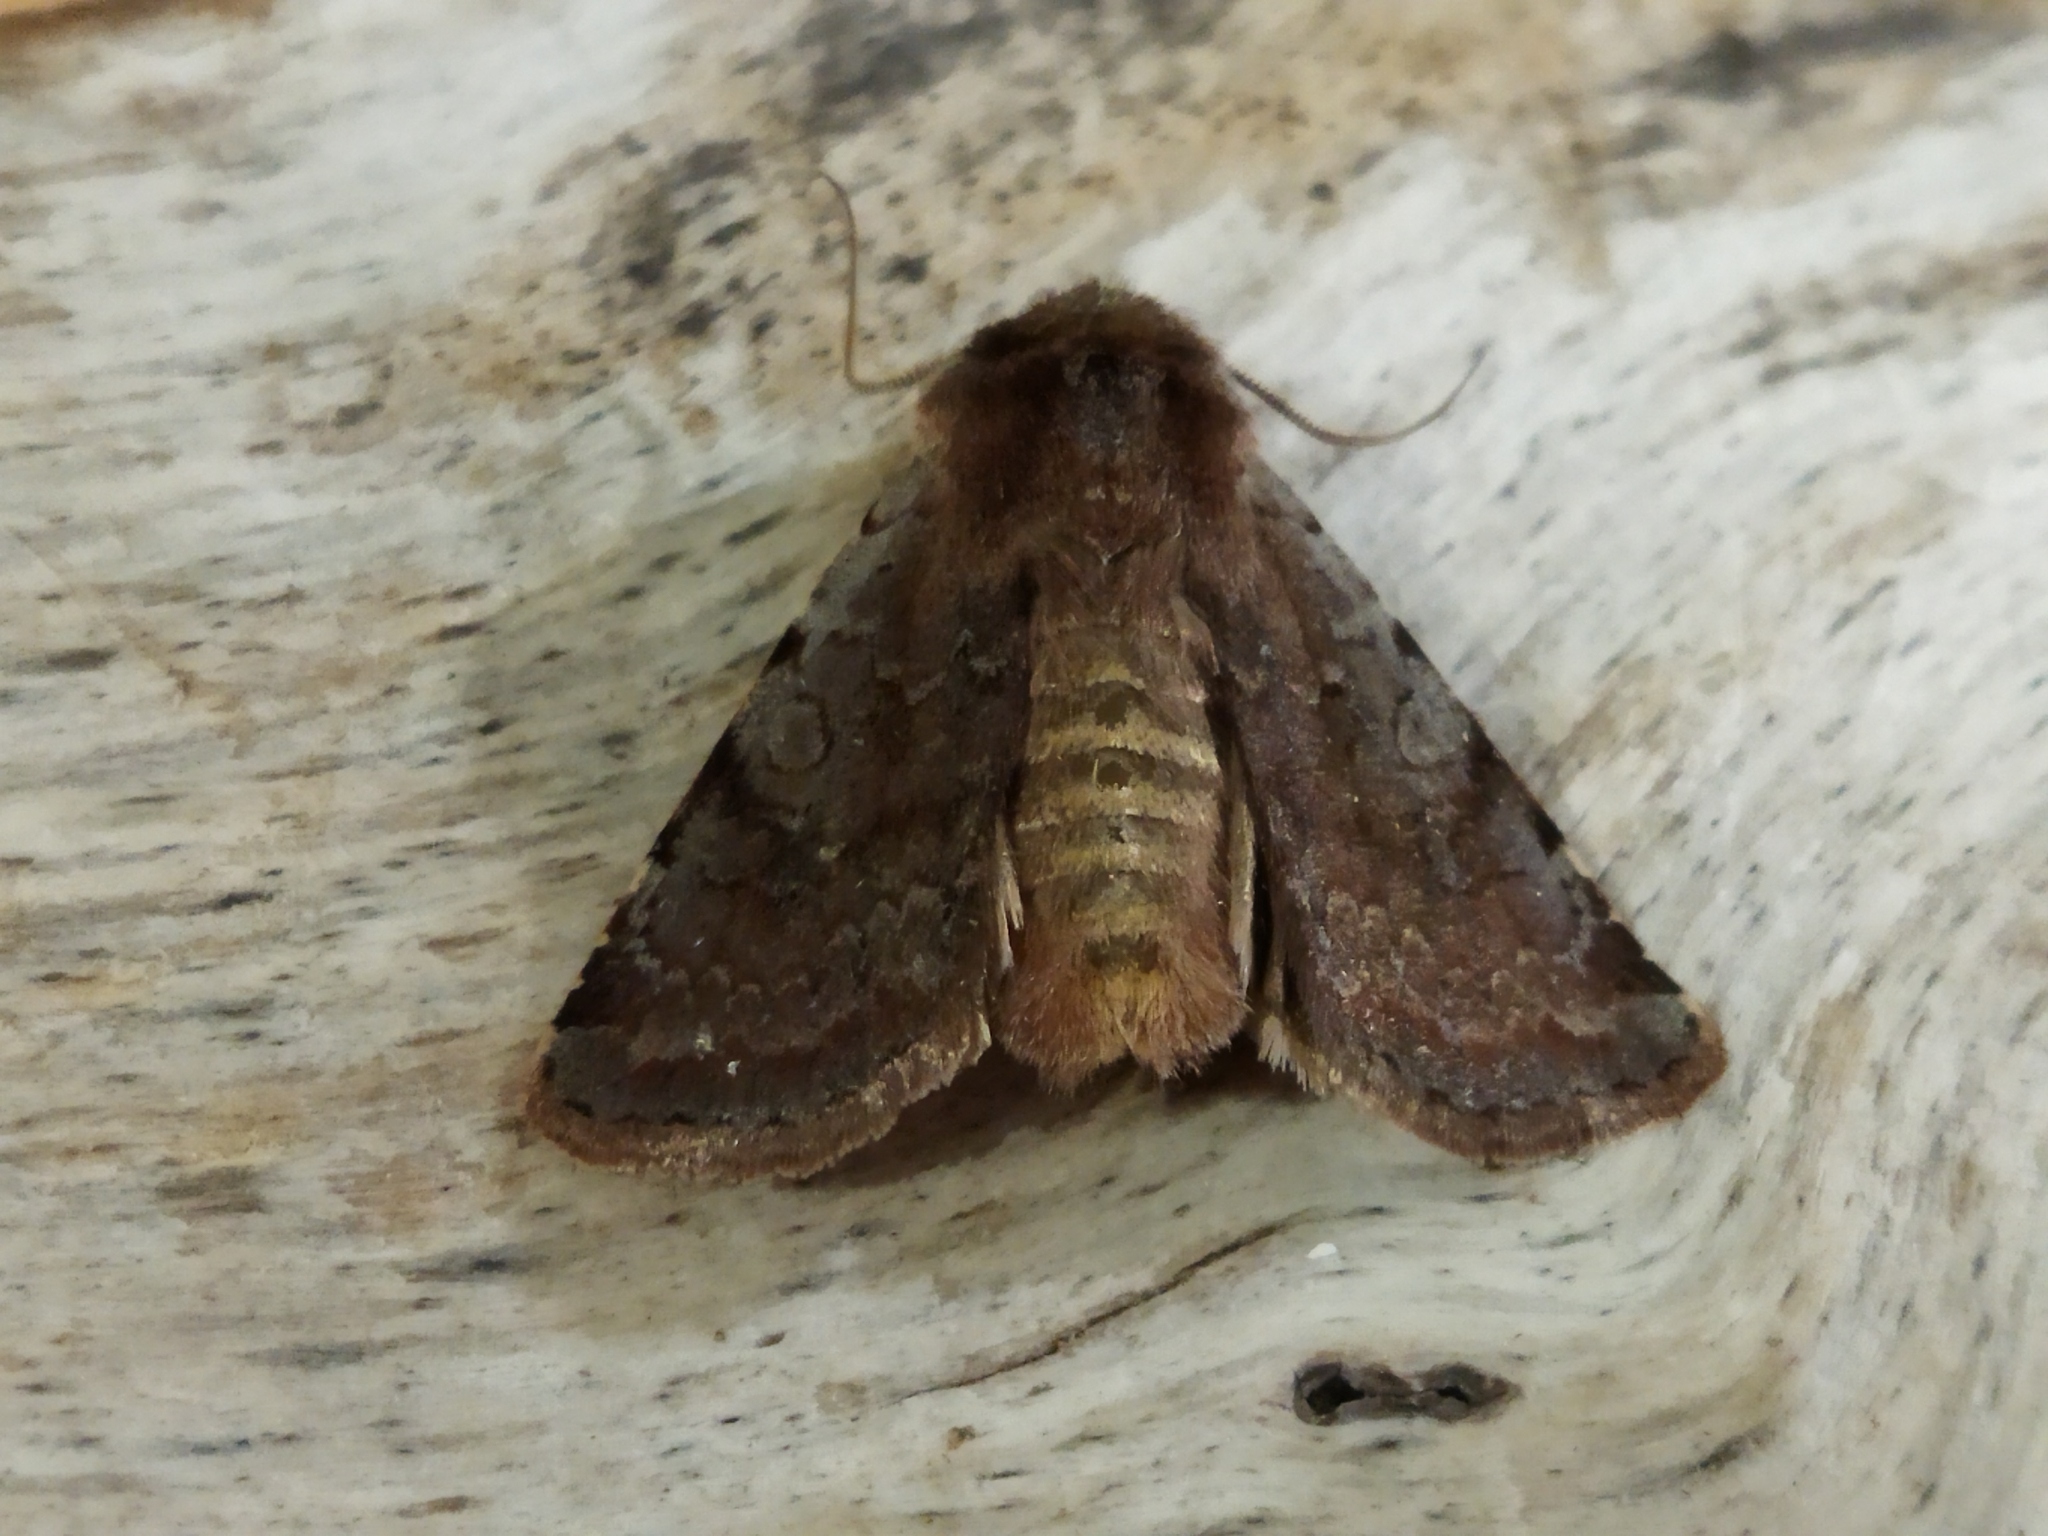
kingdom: Animalia
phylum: Arthropoda
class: Insecta
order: Lepidoptera
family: Noctuidae
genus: Cerastis
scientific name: Cerastis rubricosa
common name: Red chestnut
